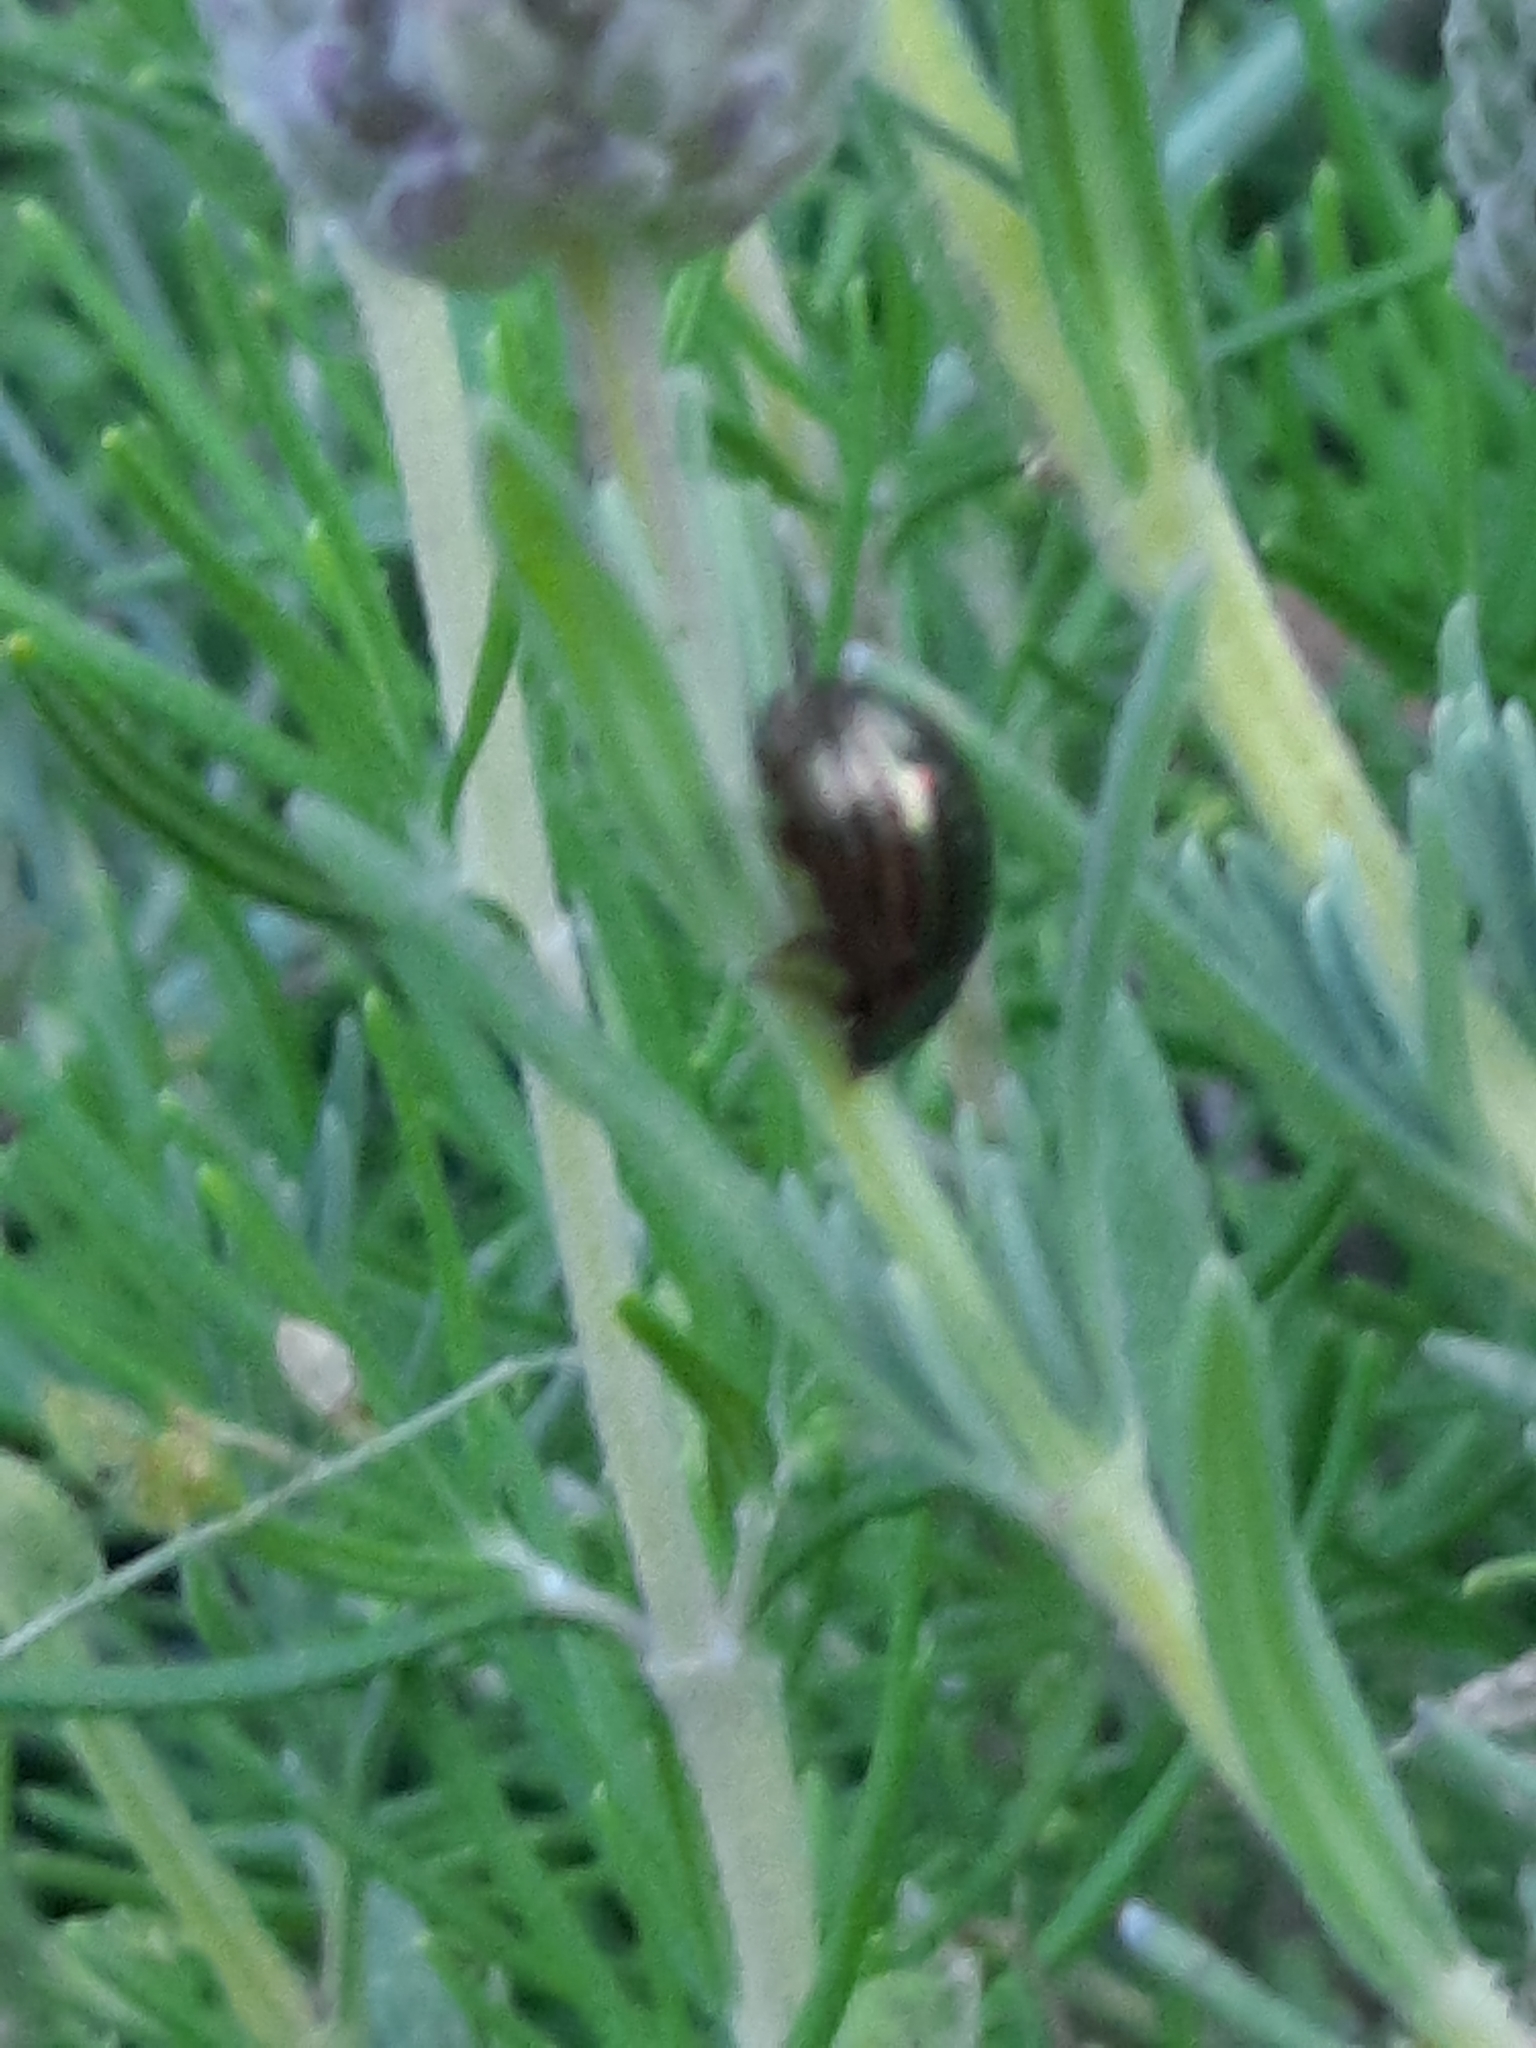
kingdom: Animalia
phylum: Arthropoda
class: Insecta
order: Coleoptera
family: Chrysomelidae
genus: Chrysolina
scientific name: Chrysolina americana
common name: Rosemary beetle
